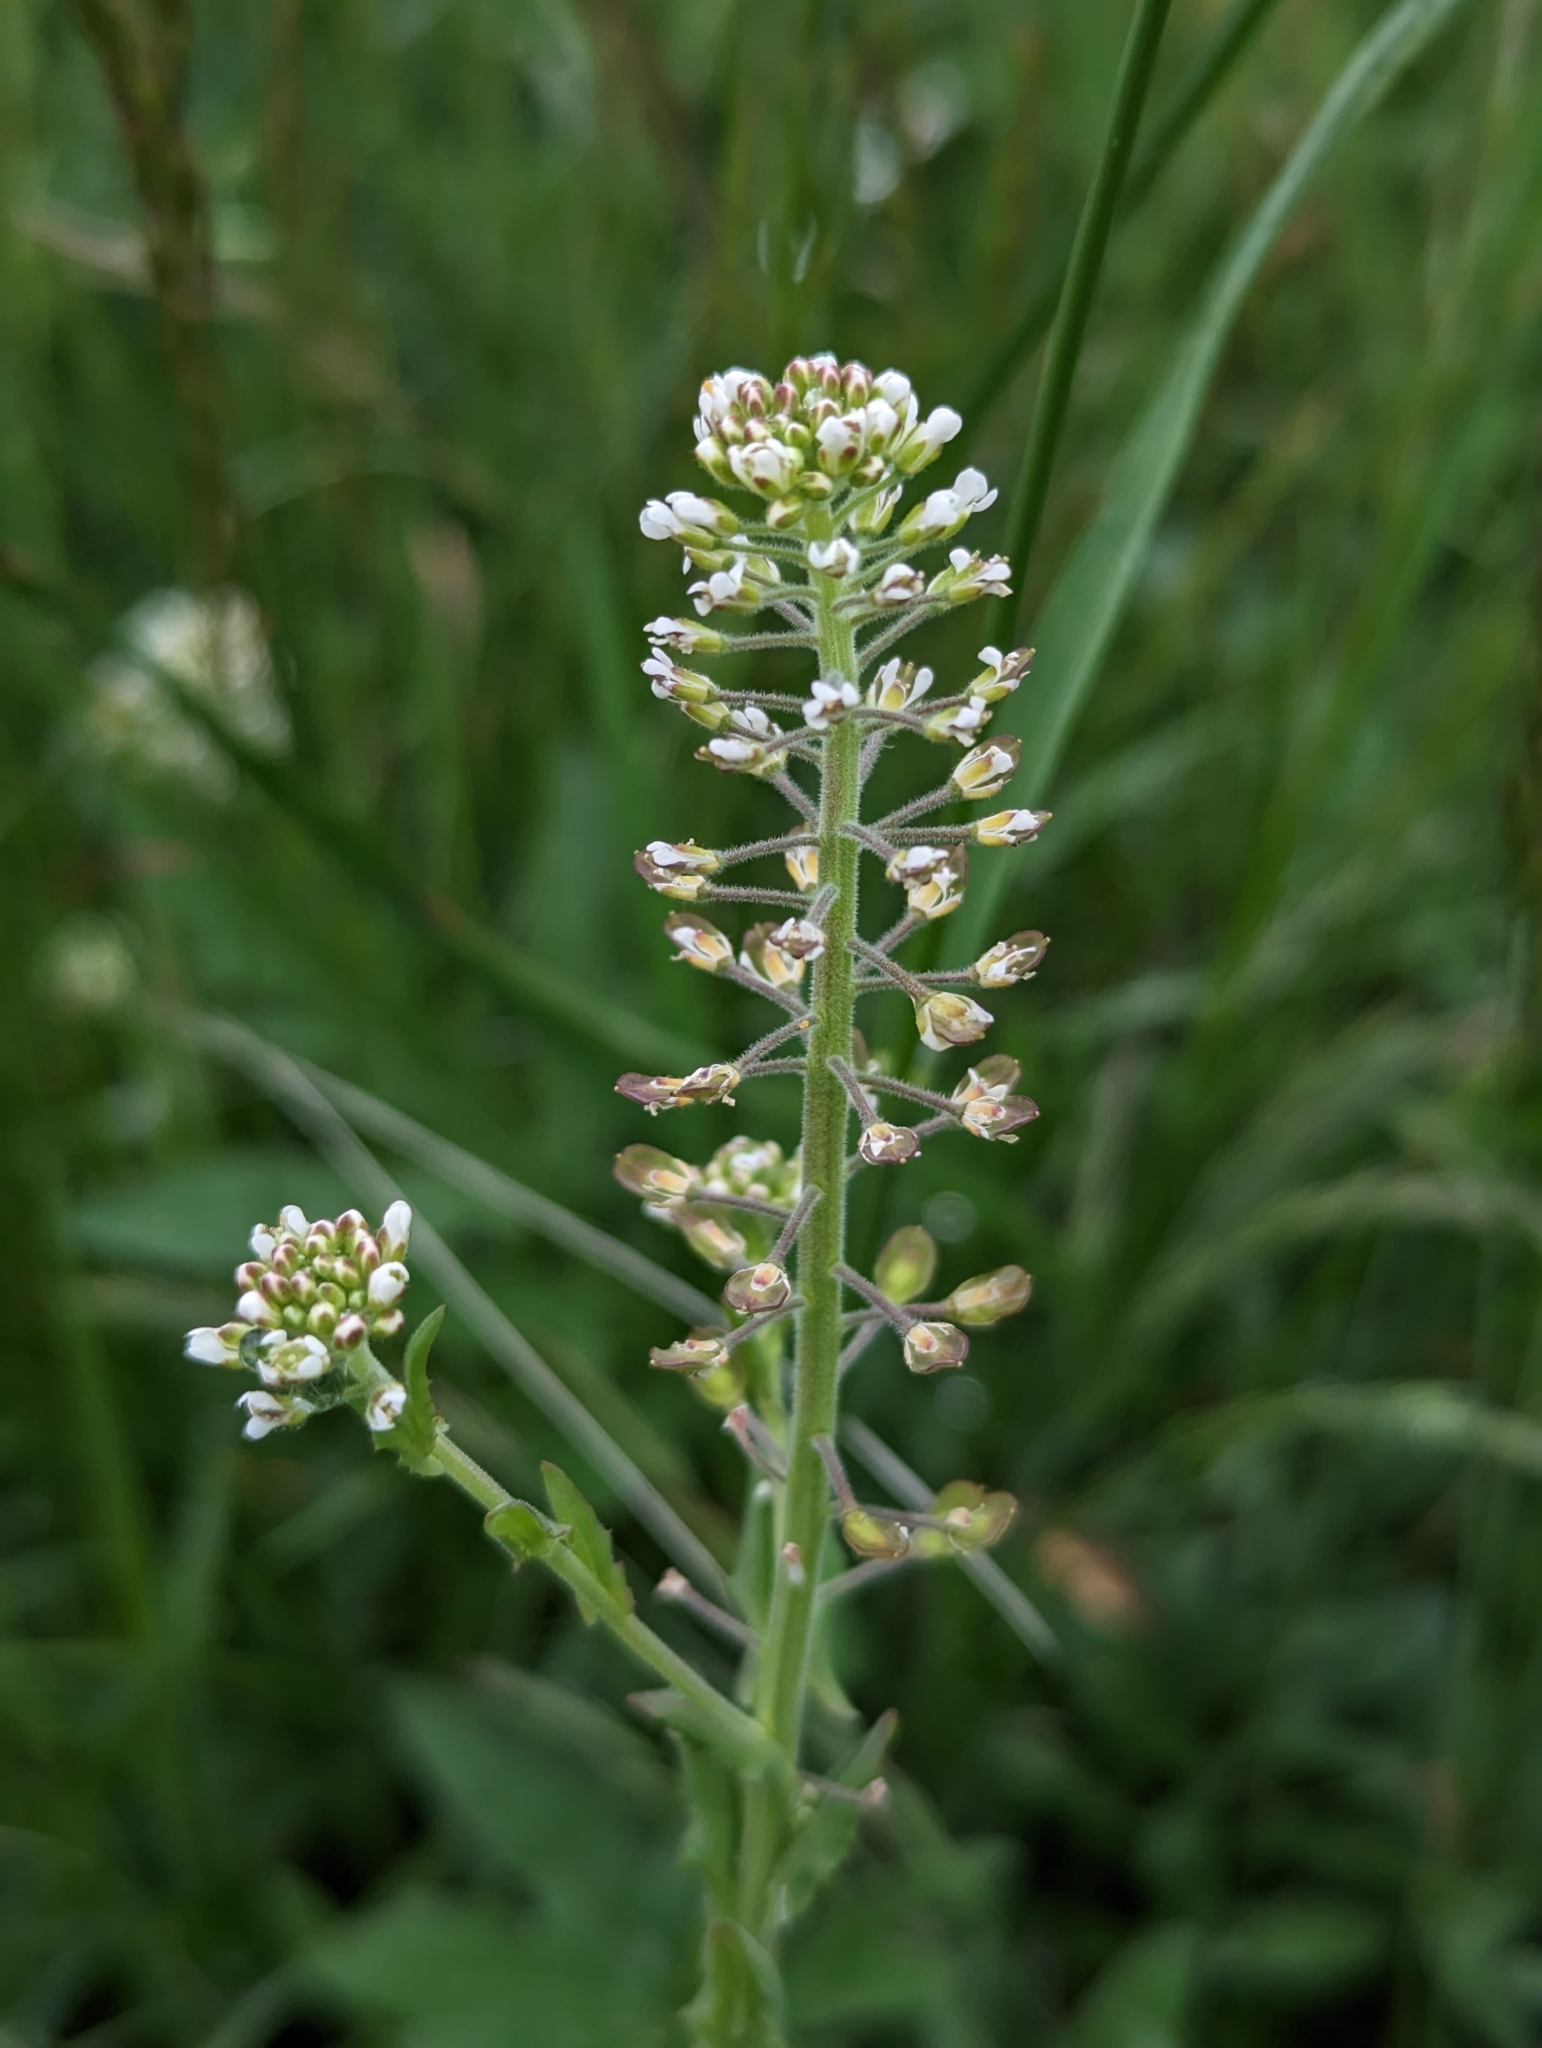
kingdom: Plantae
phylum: Tracheophyta
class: Magnoliopsida
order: Brassicales
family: Brassicaceae
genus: Lepidium
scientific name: Lepidium campestre
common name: Field pepperwort
